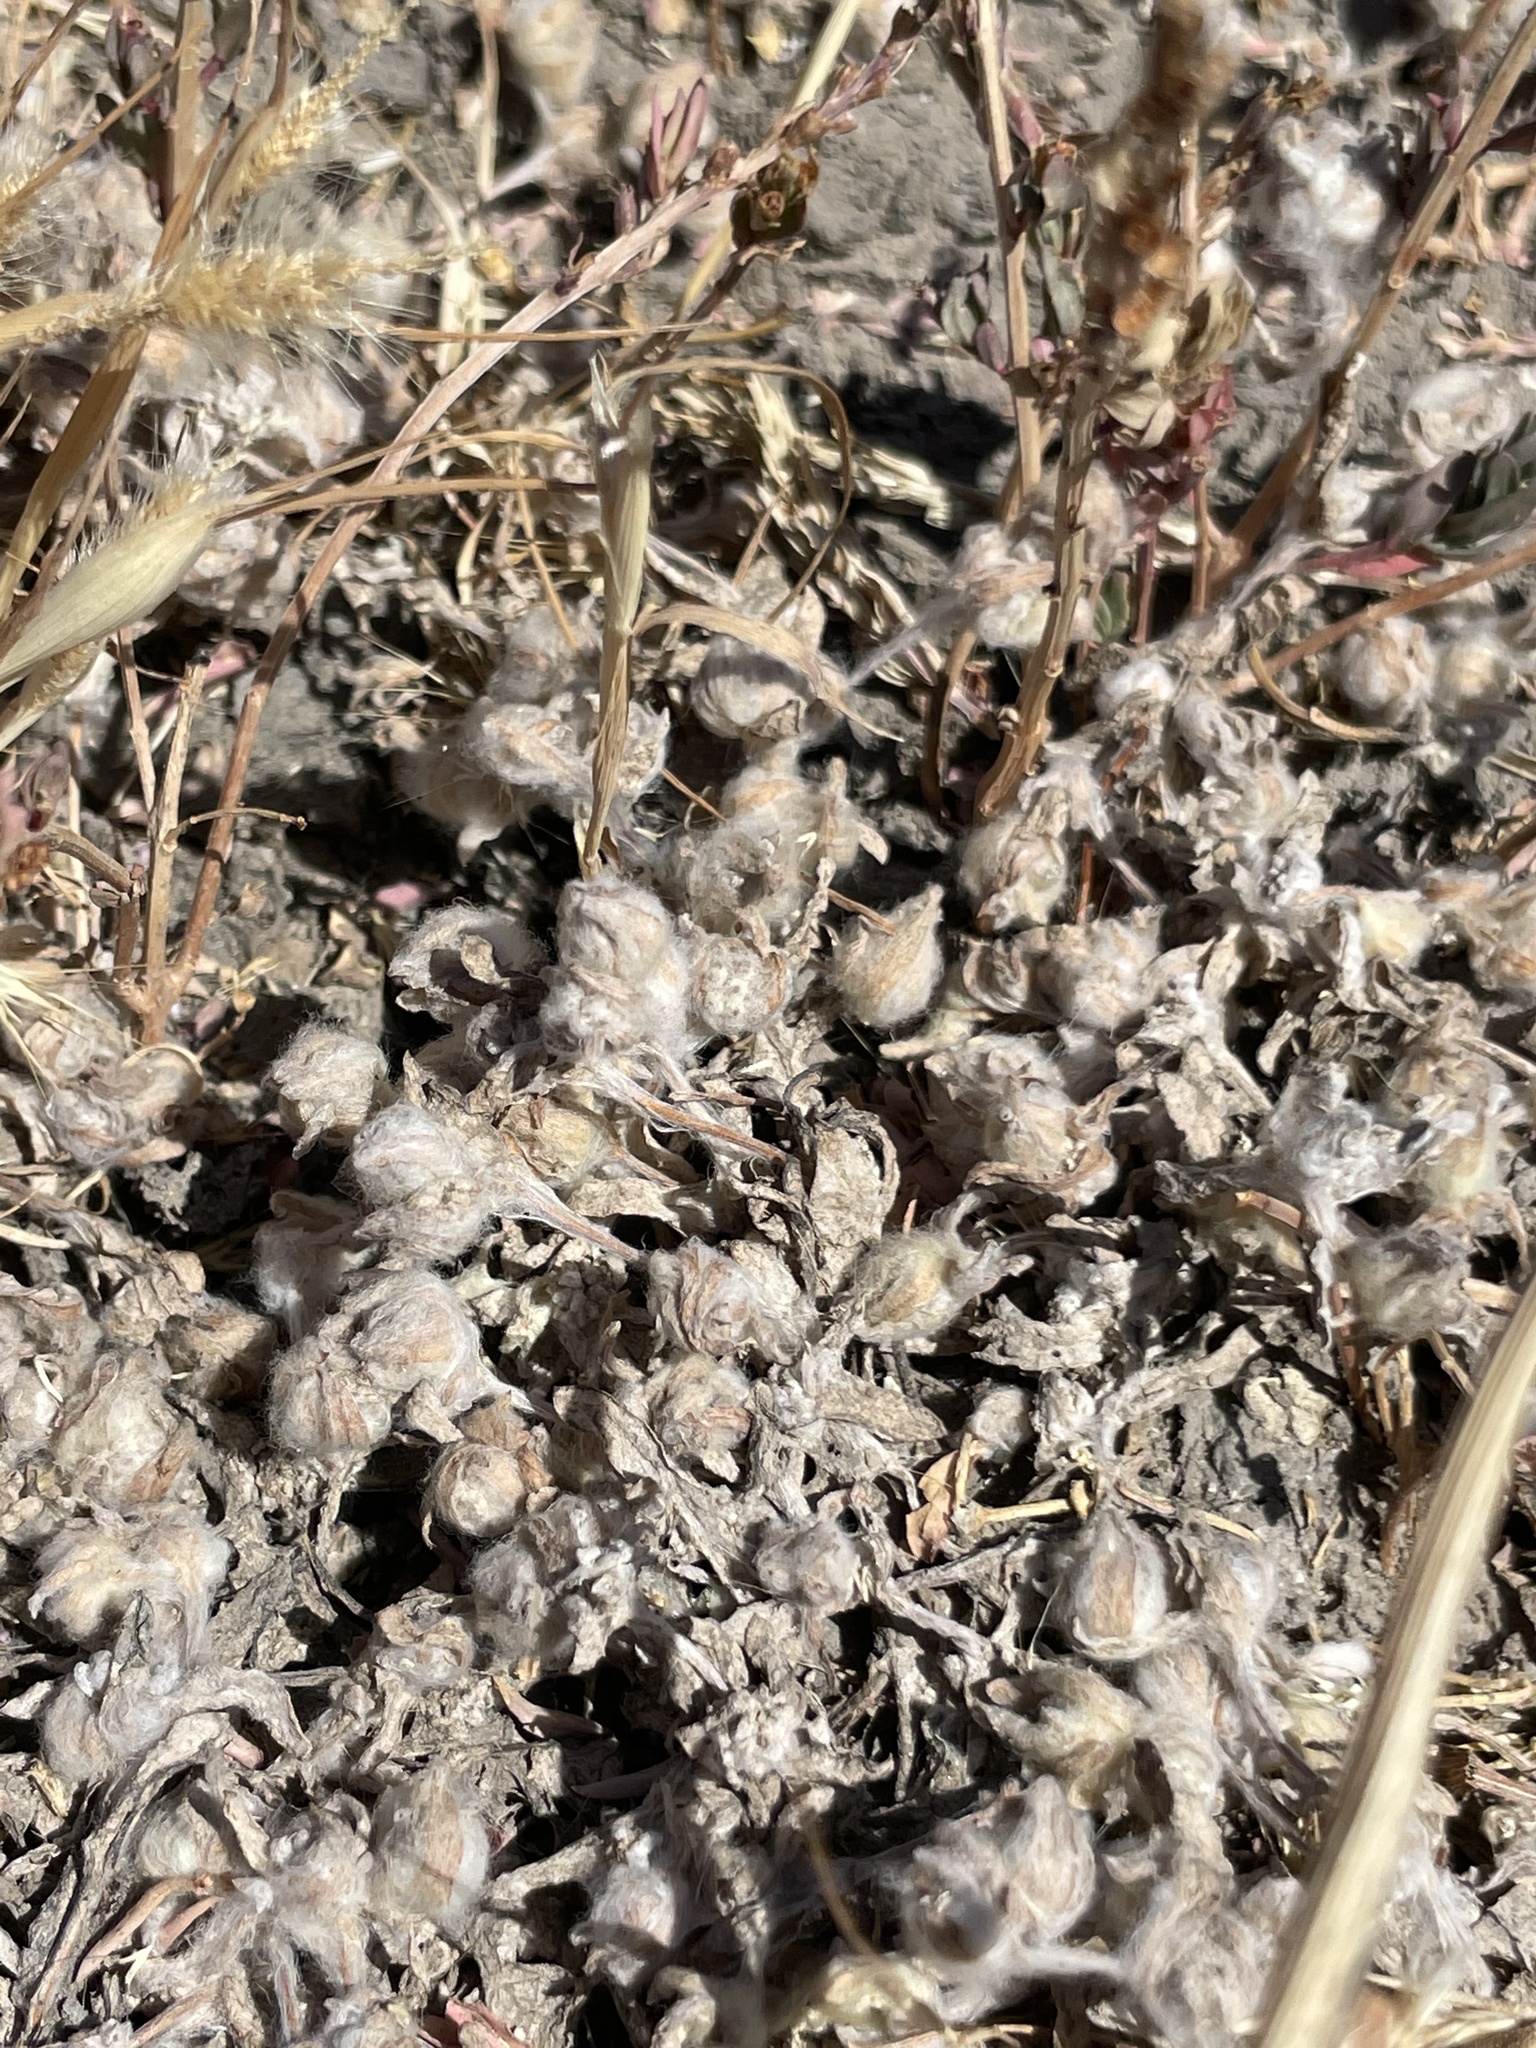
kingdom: Plantae
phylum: Tracheophyta
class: Magnoliopsida
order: Asterales
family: Asteraceae
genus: Psilocarphus
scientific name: Psilocarphus brevissimus
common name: Dwarf woollyheads
